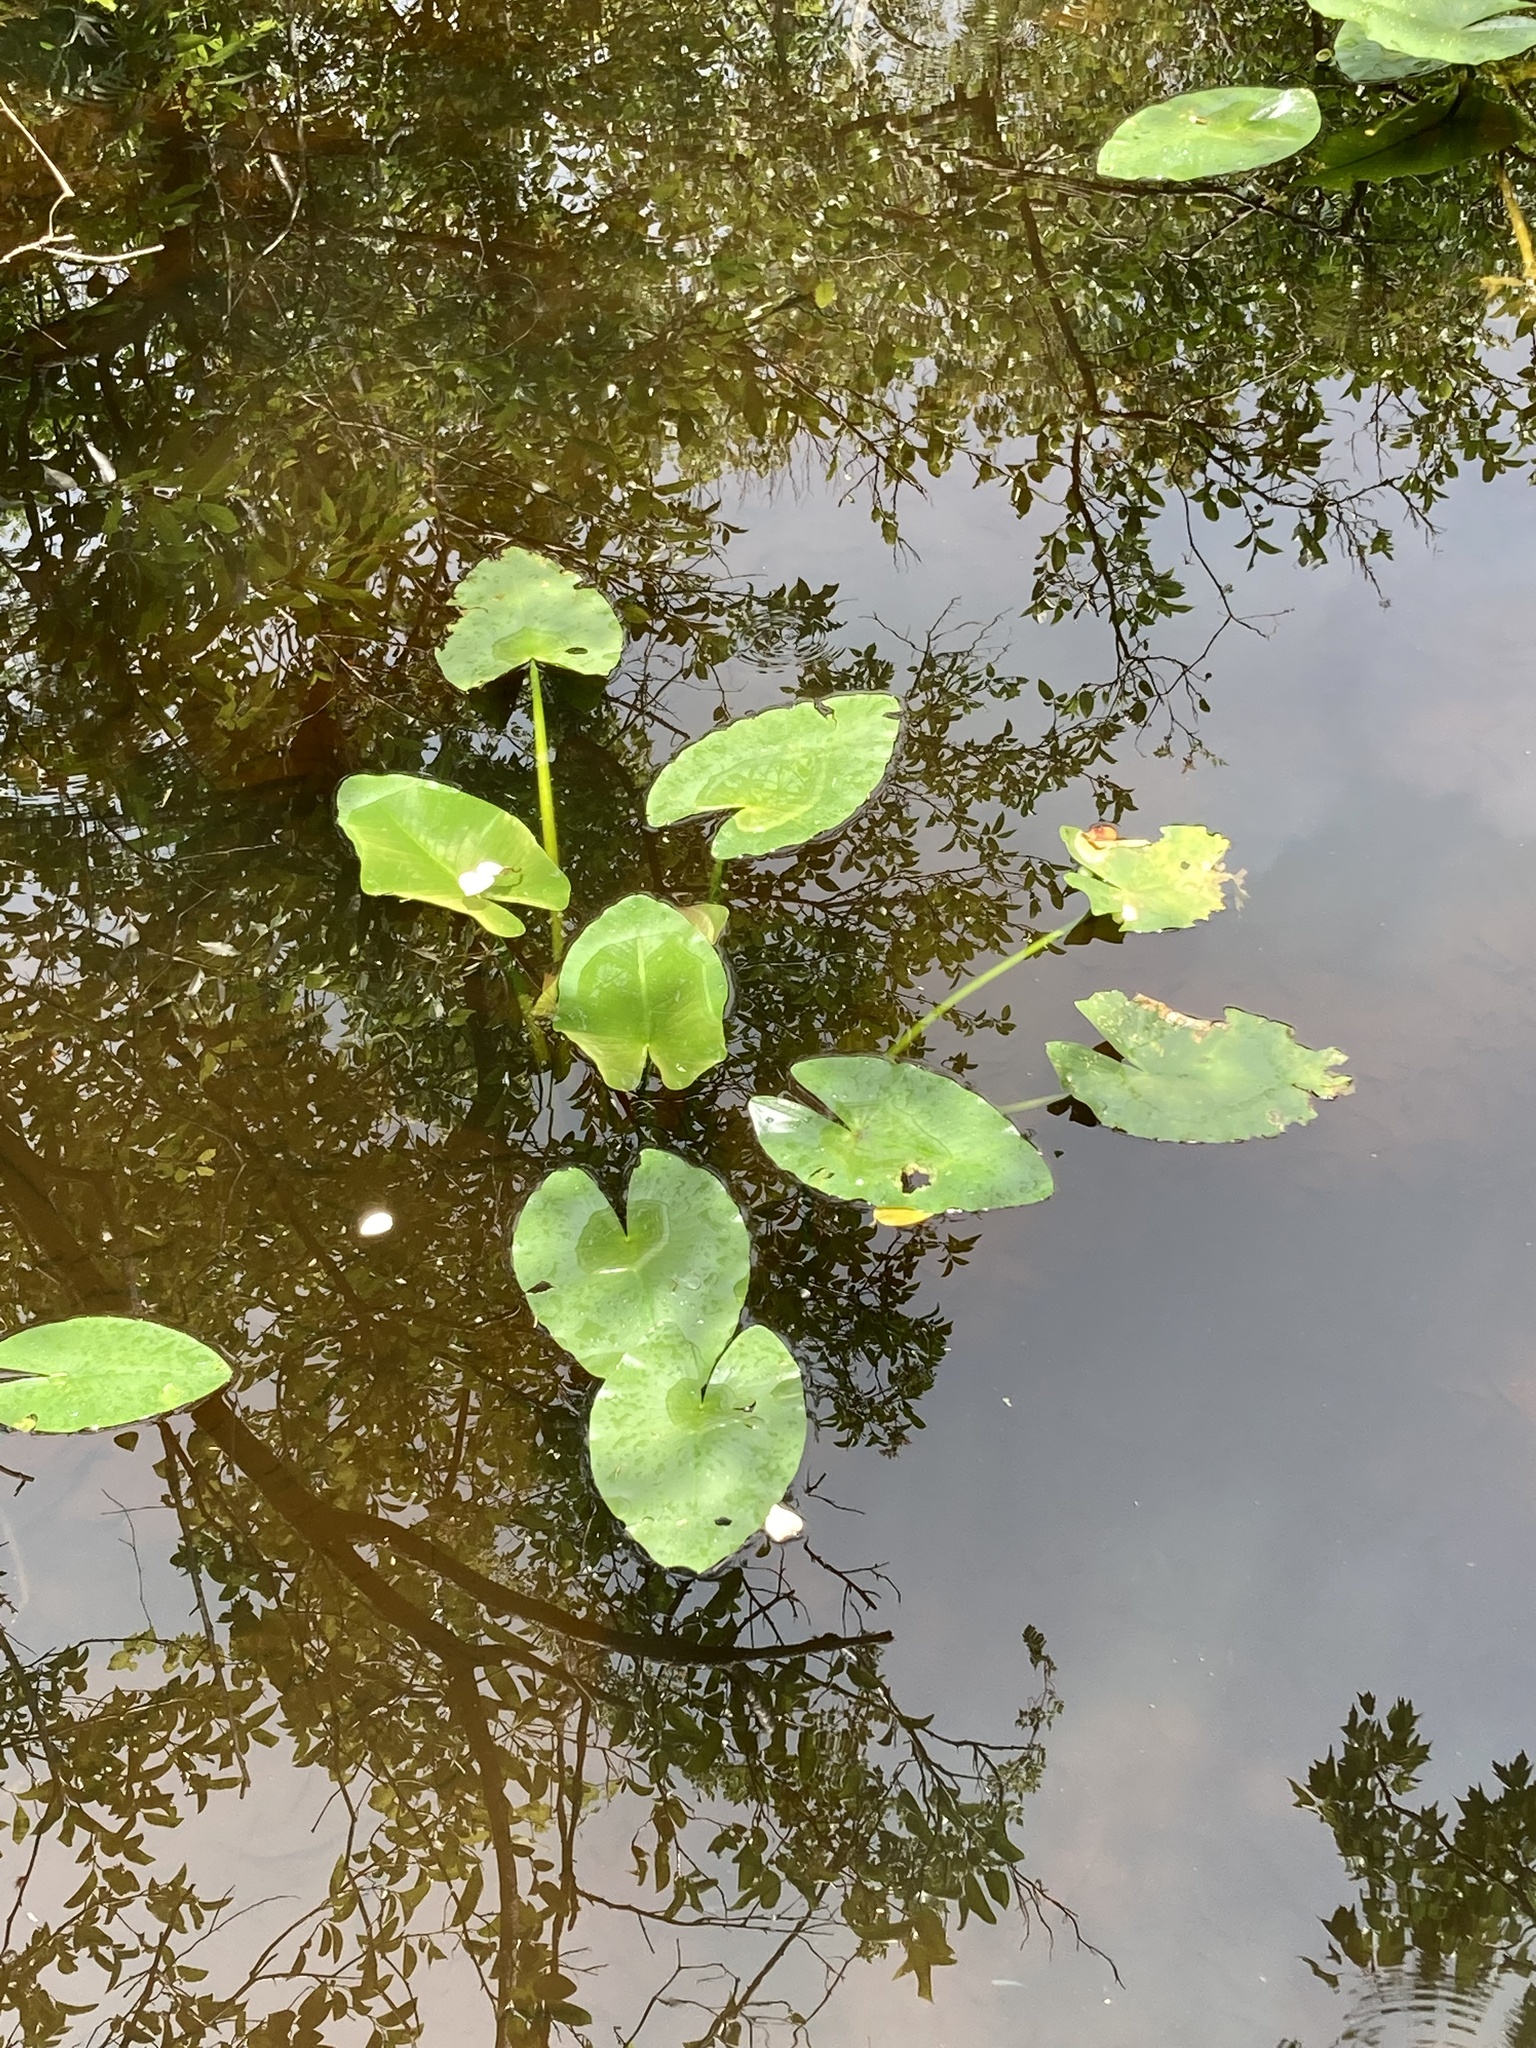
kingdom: Plantae
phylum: Tracheophyta
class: Magnoliopsida
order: Nymphaeales
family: Nymphaeaceae
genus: Nuphar
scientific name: Nuphar advena
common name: Spatter-dock
